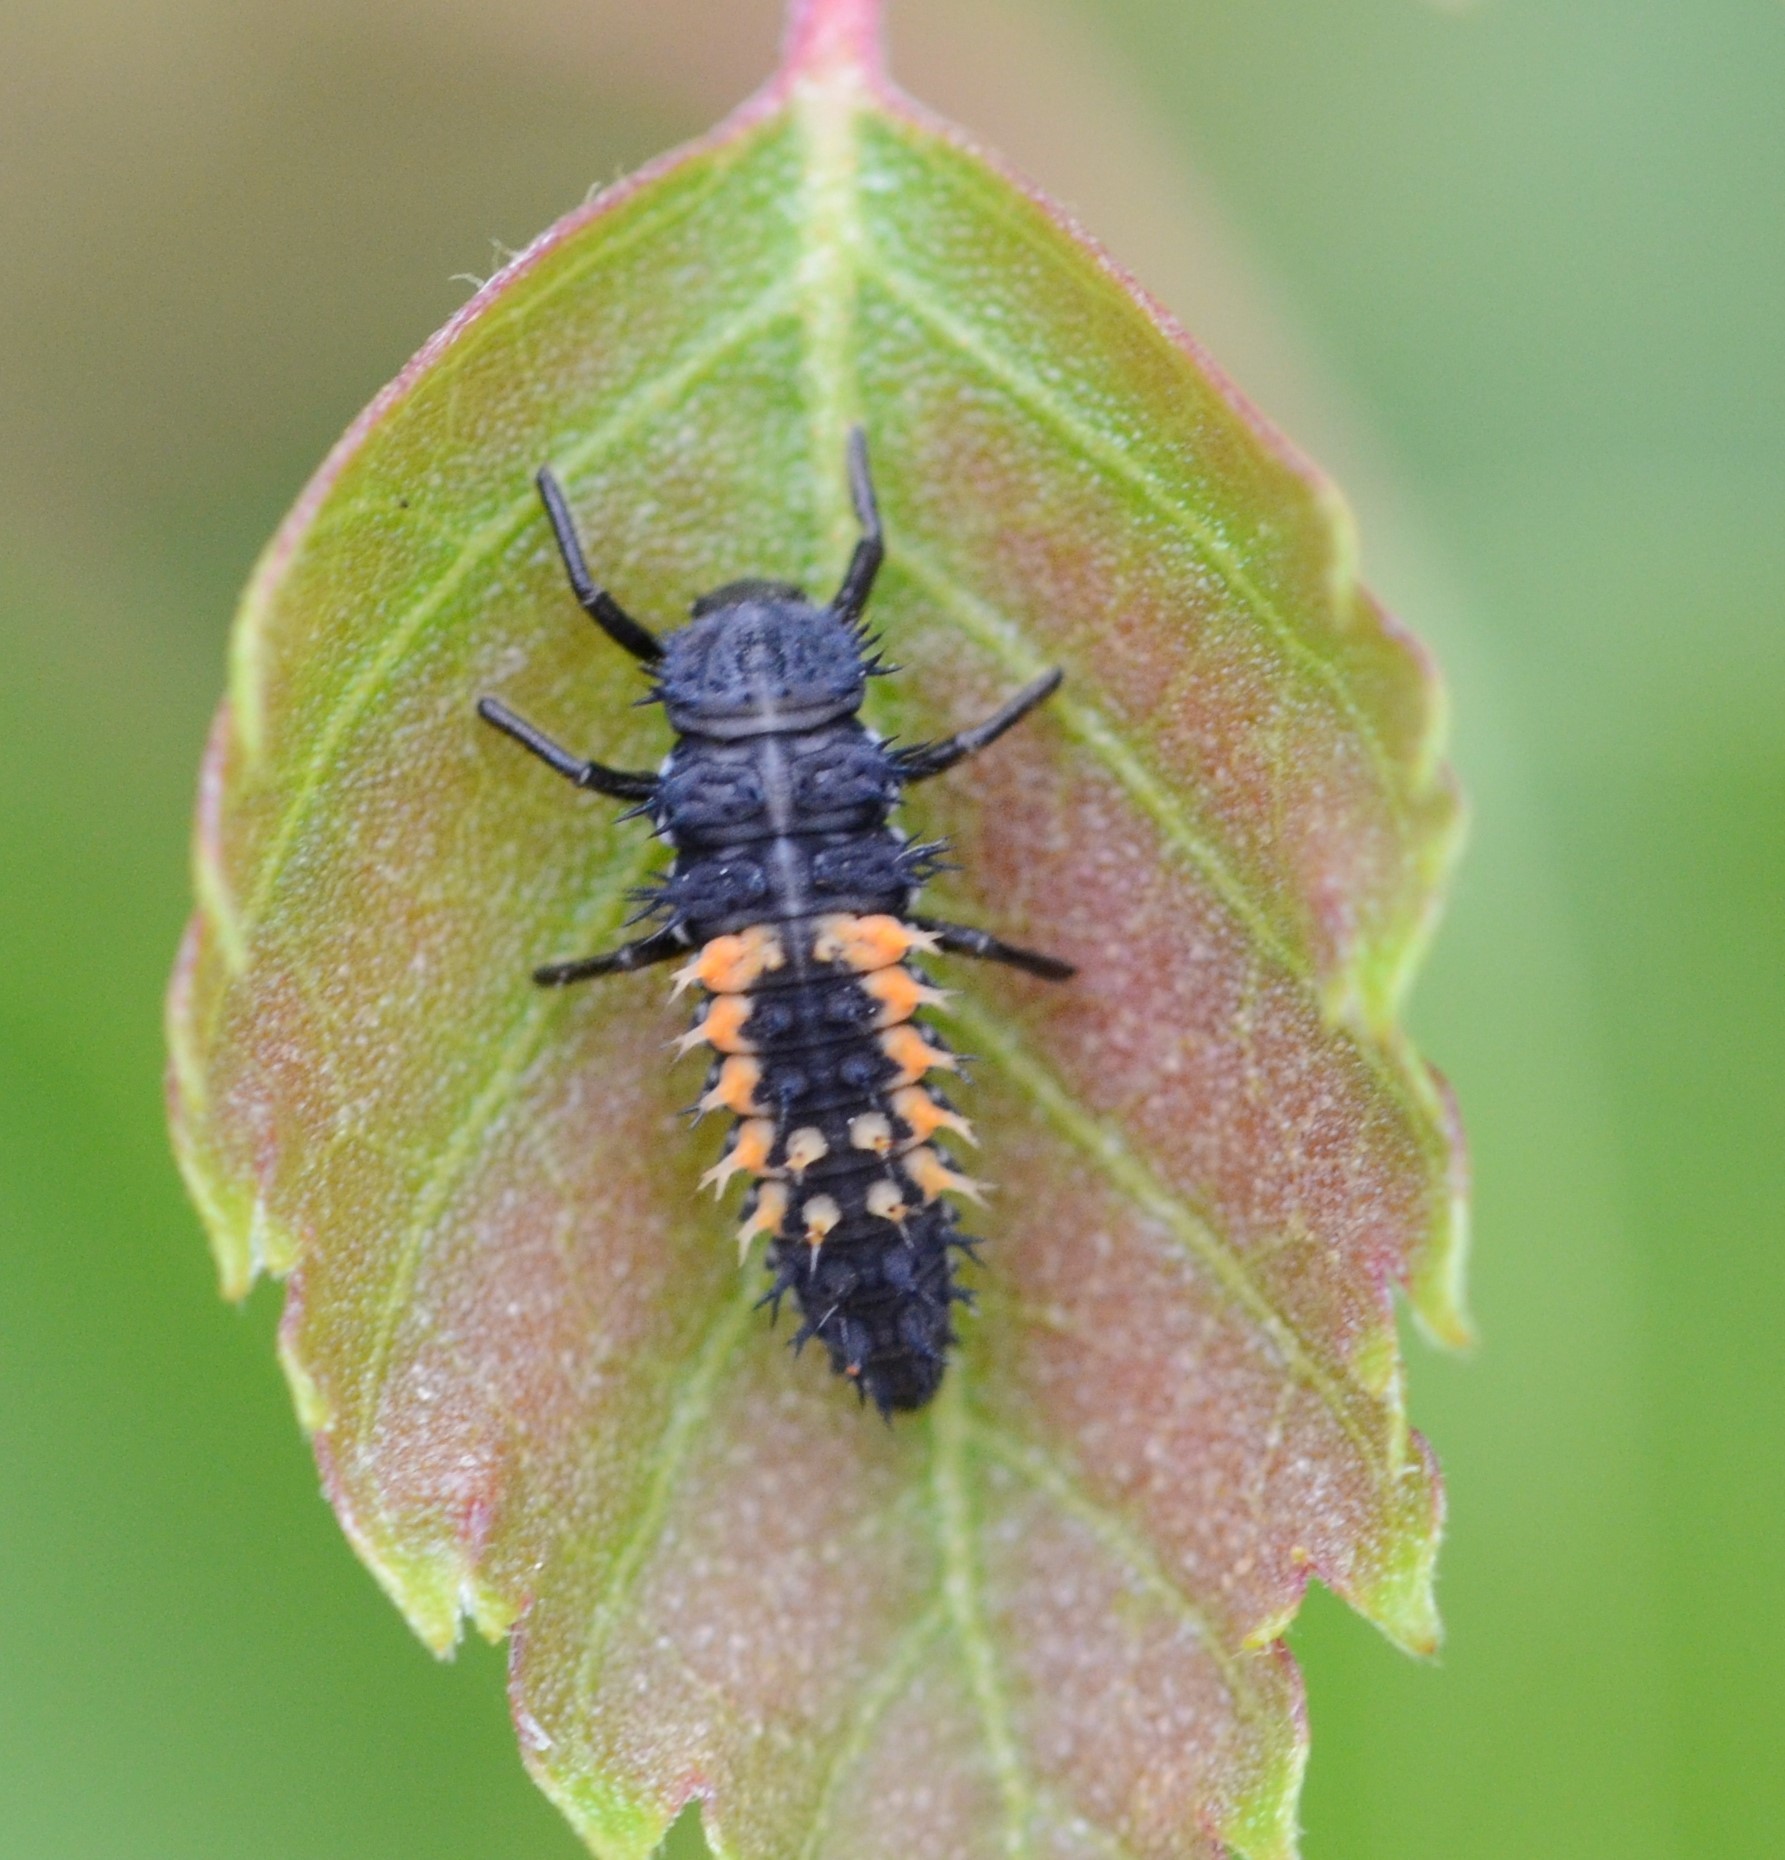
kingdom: Animalia
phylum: Arthropoda
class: Insecta
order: Coleoptera
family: Coccinellidae
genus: Harmonia
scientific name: Harmonia axyridis
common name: Harlequin ladybird
